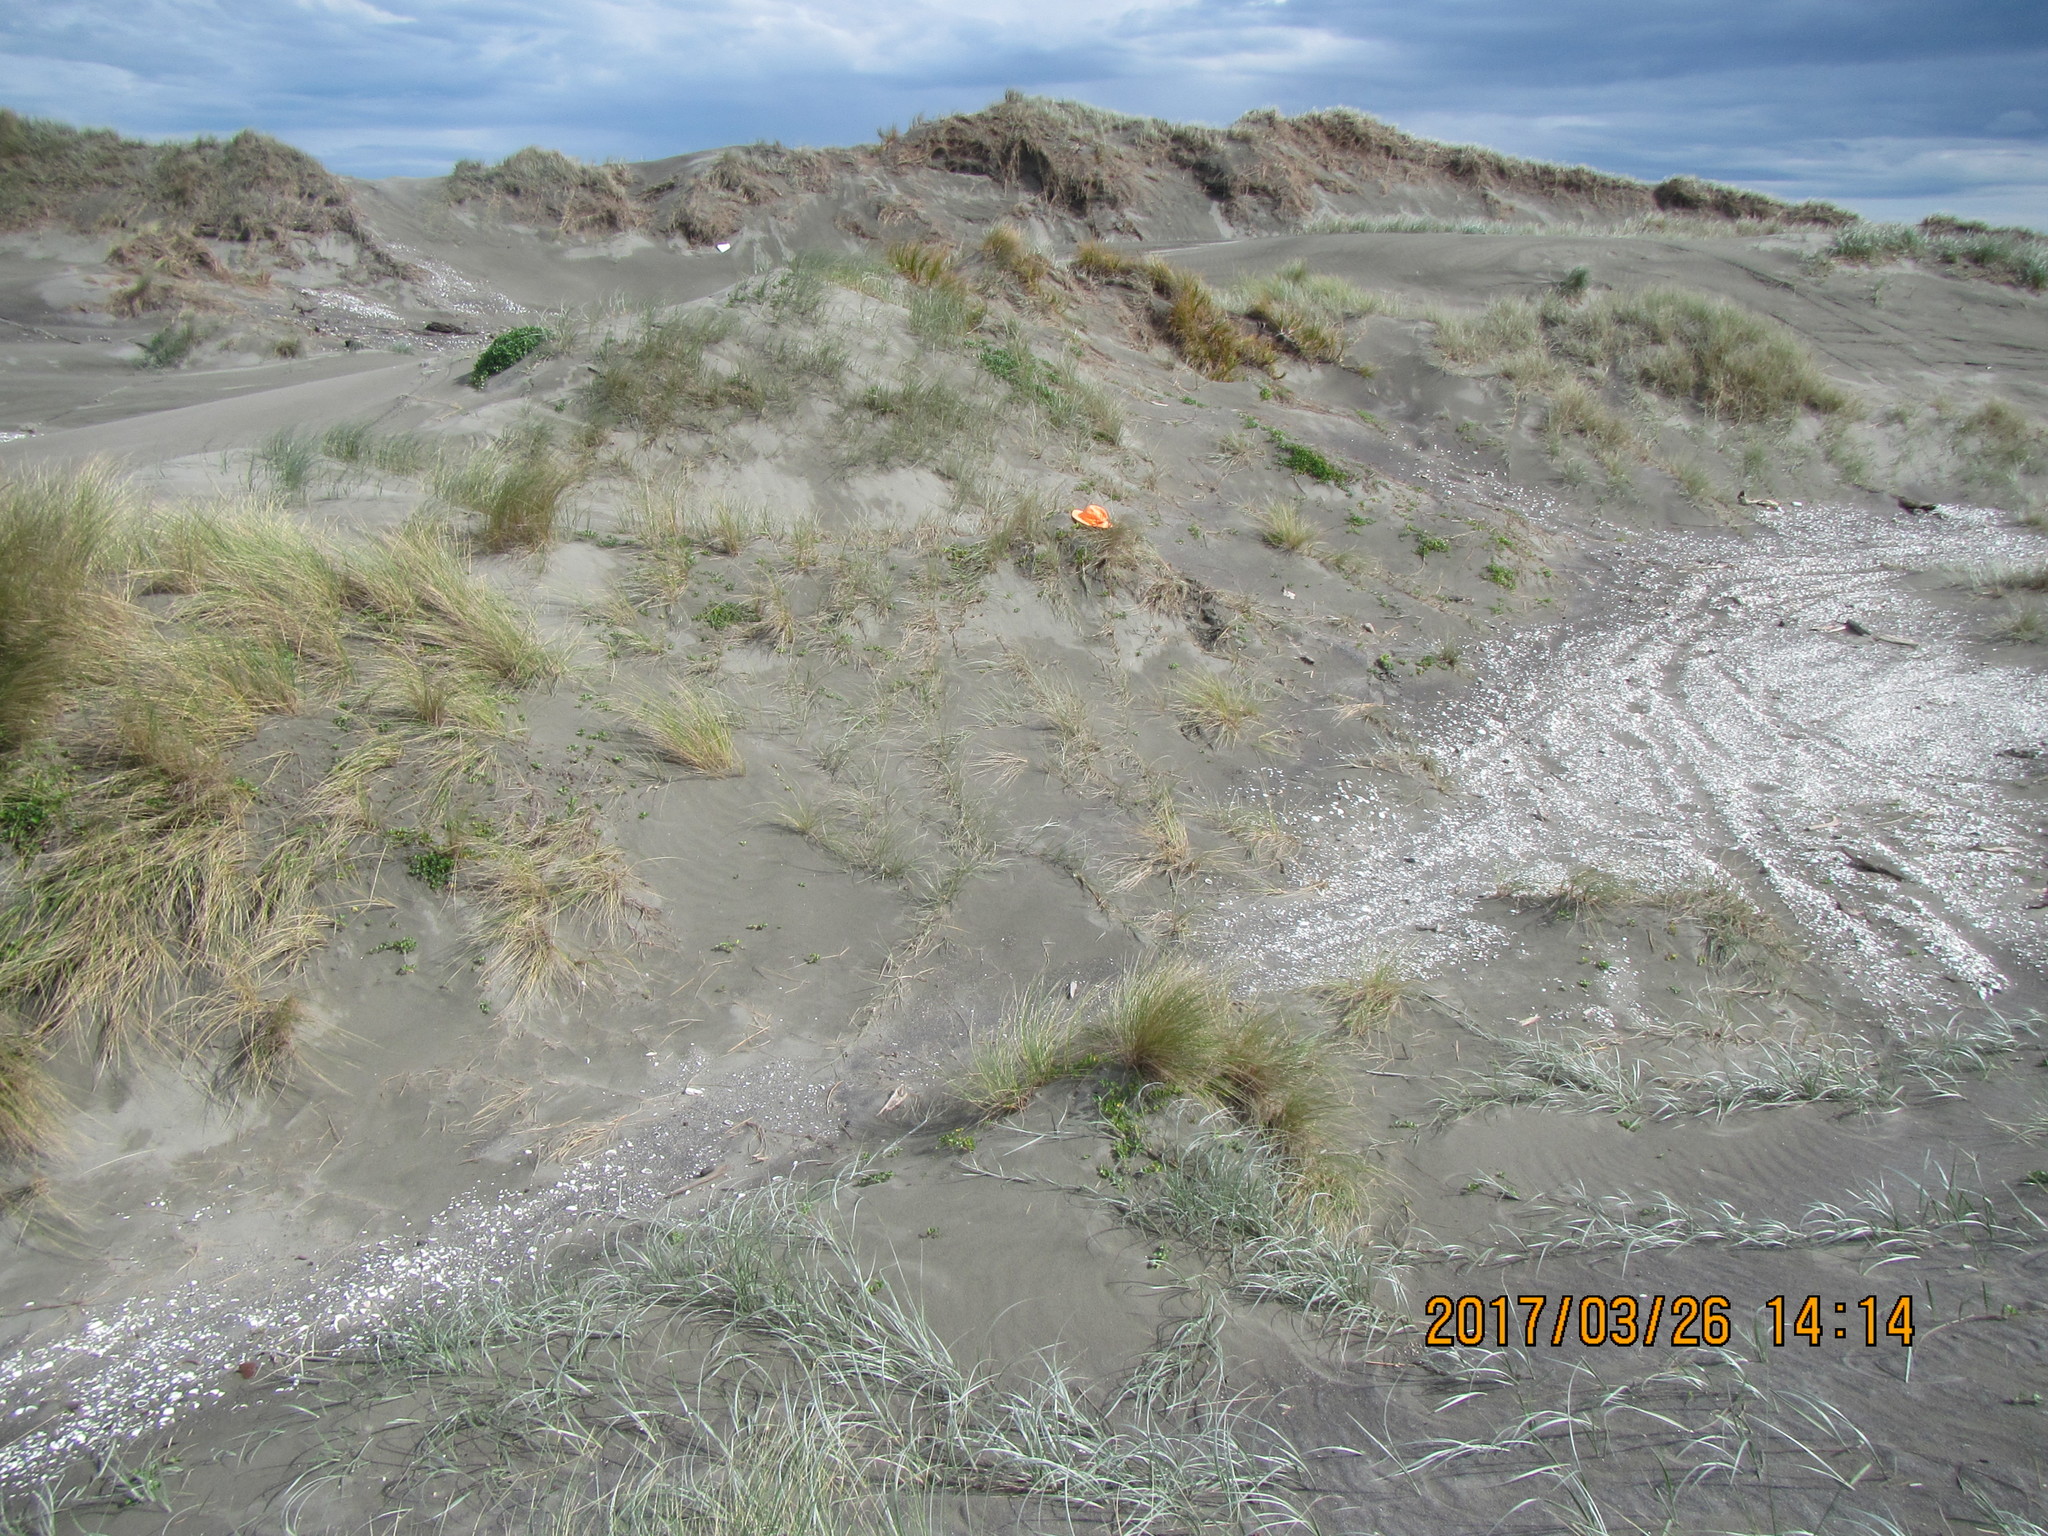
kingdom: Animalia
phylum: Arthropoda
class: Arachnida
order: Araneae
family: Thomisidae
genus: Sidymella
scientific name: Sidymella trapezia
